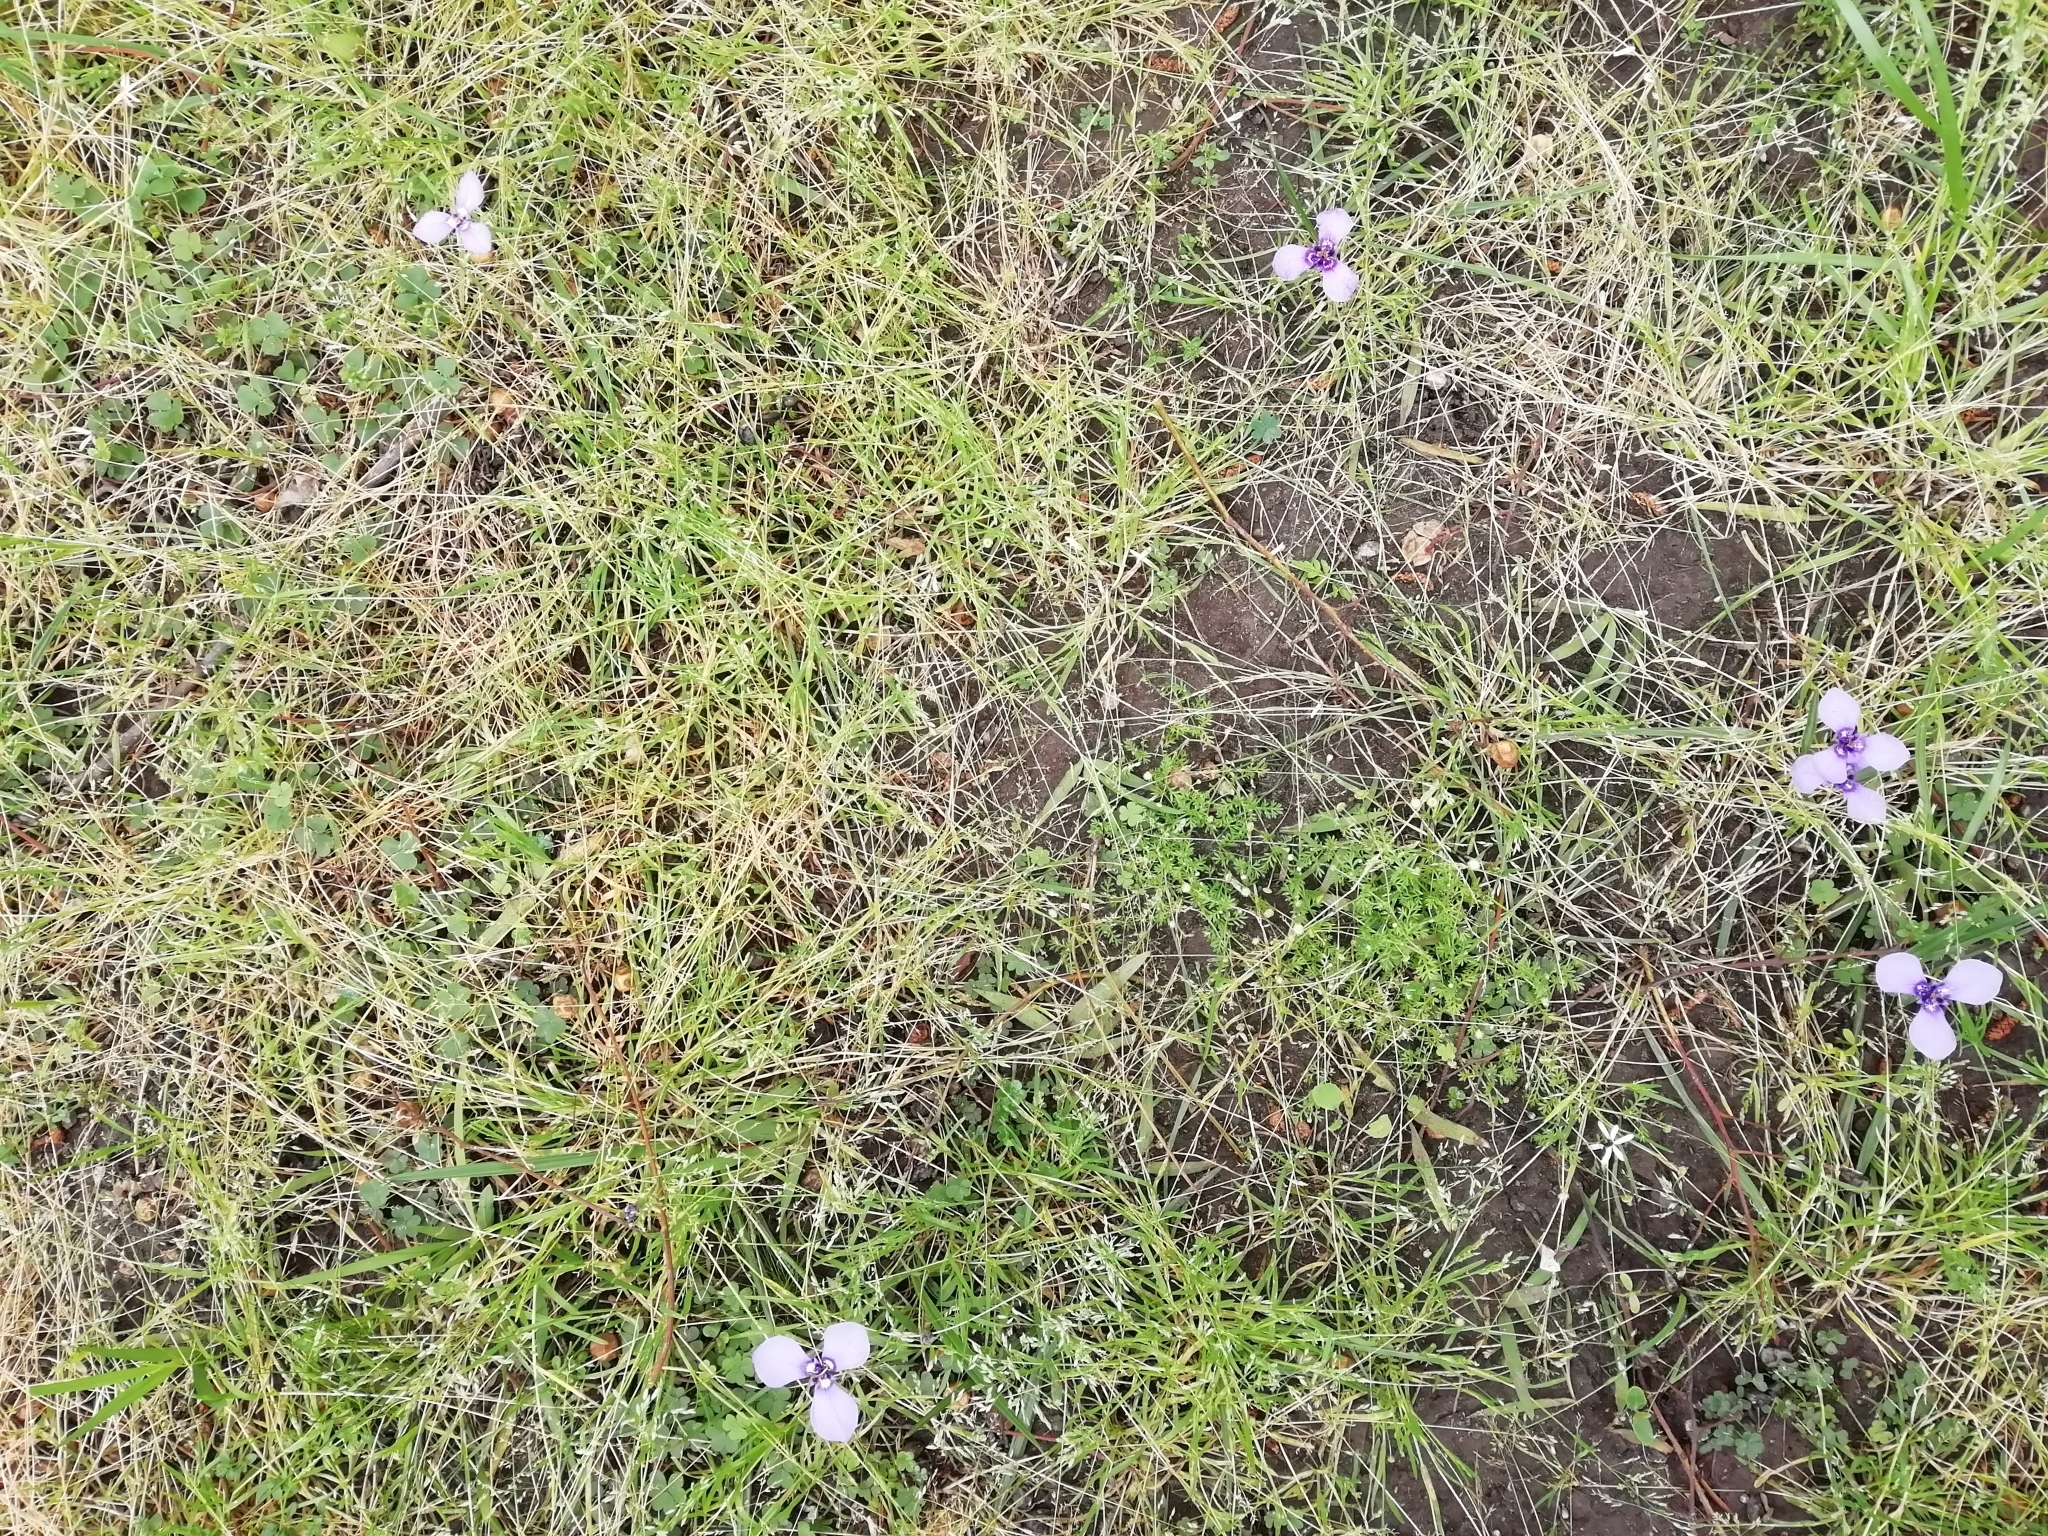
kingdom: Plantae
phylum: Tracheophyta
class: Liliopsida
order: Asparagales
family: Iridaceae
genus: Herbertia
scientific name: Herbertia lahue
